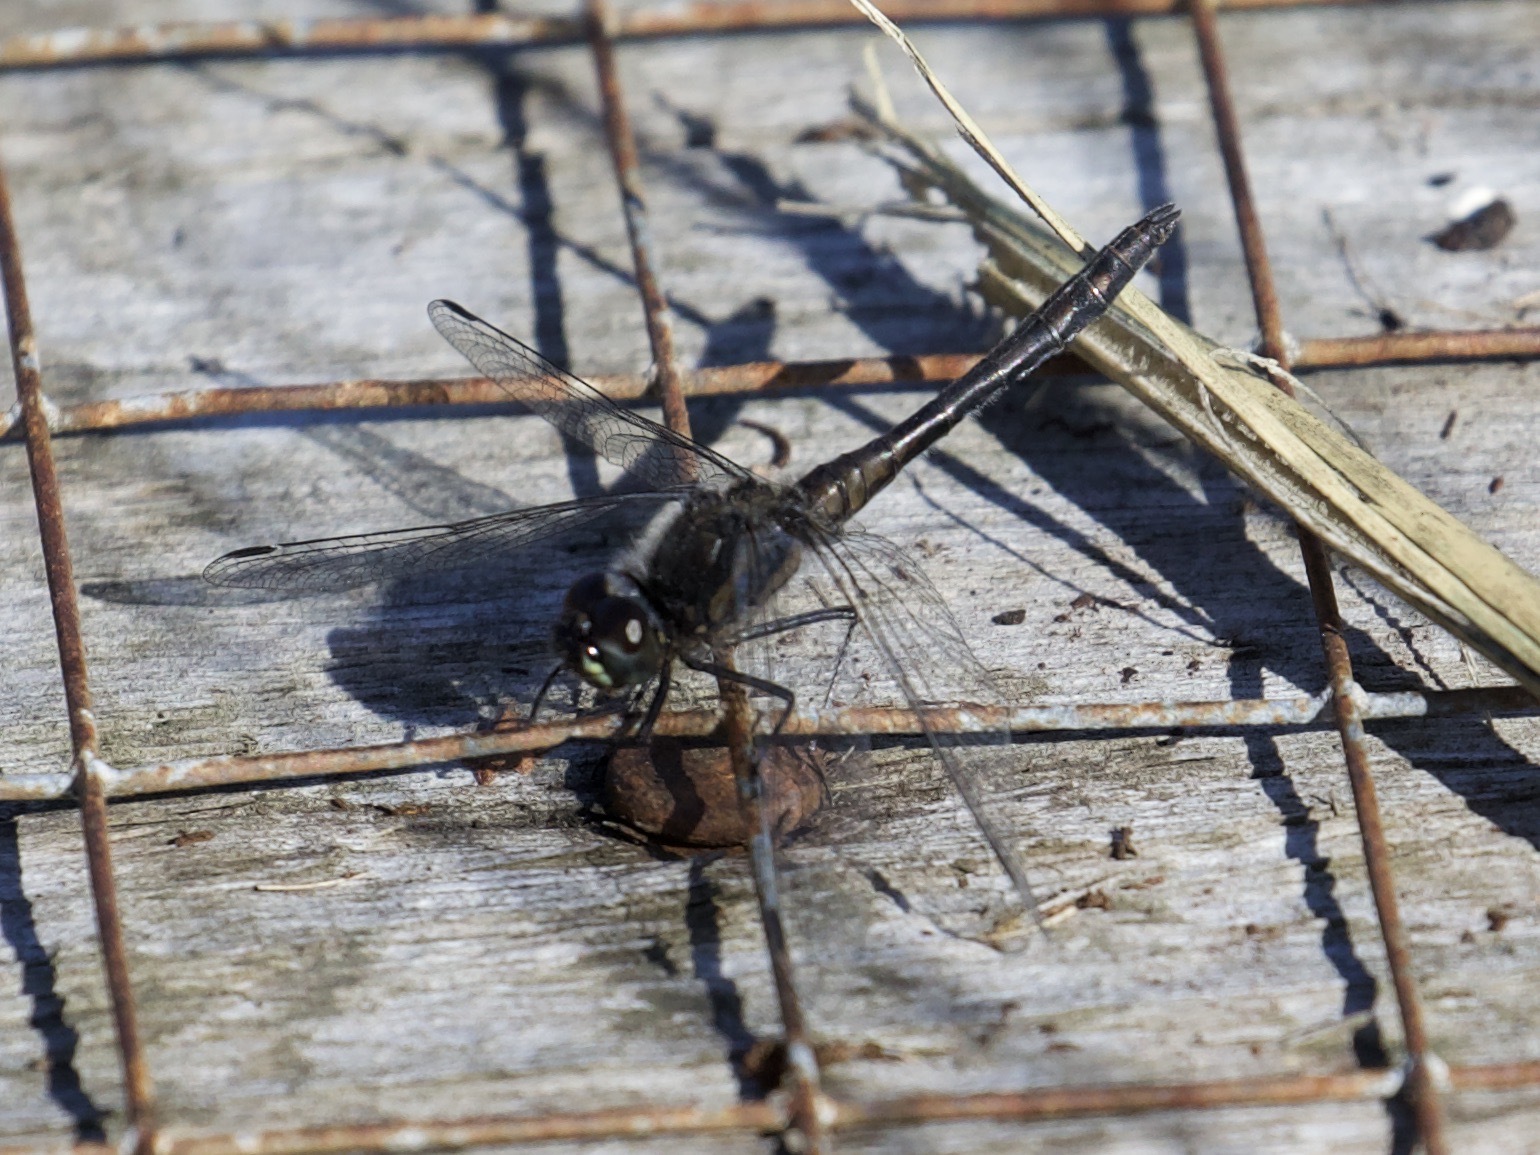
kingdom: Animalia
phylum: Arthropoda
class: Insecta
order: Odonata
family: Libellulidae
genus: Sympetrum
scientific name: Sympetrum danae
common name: Black darter
